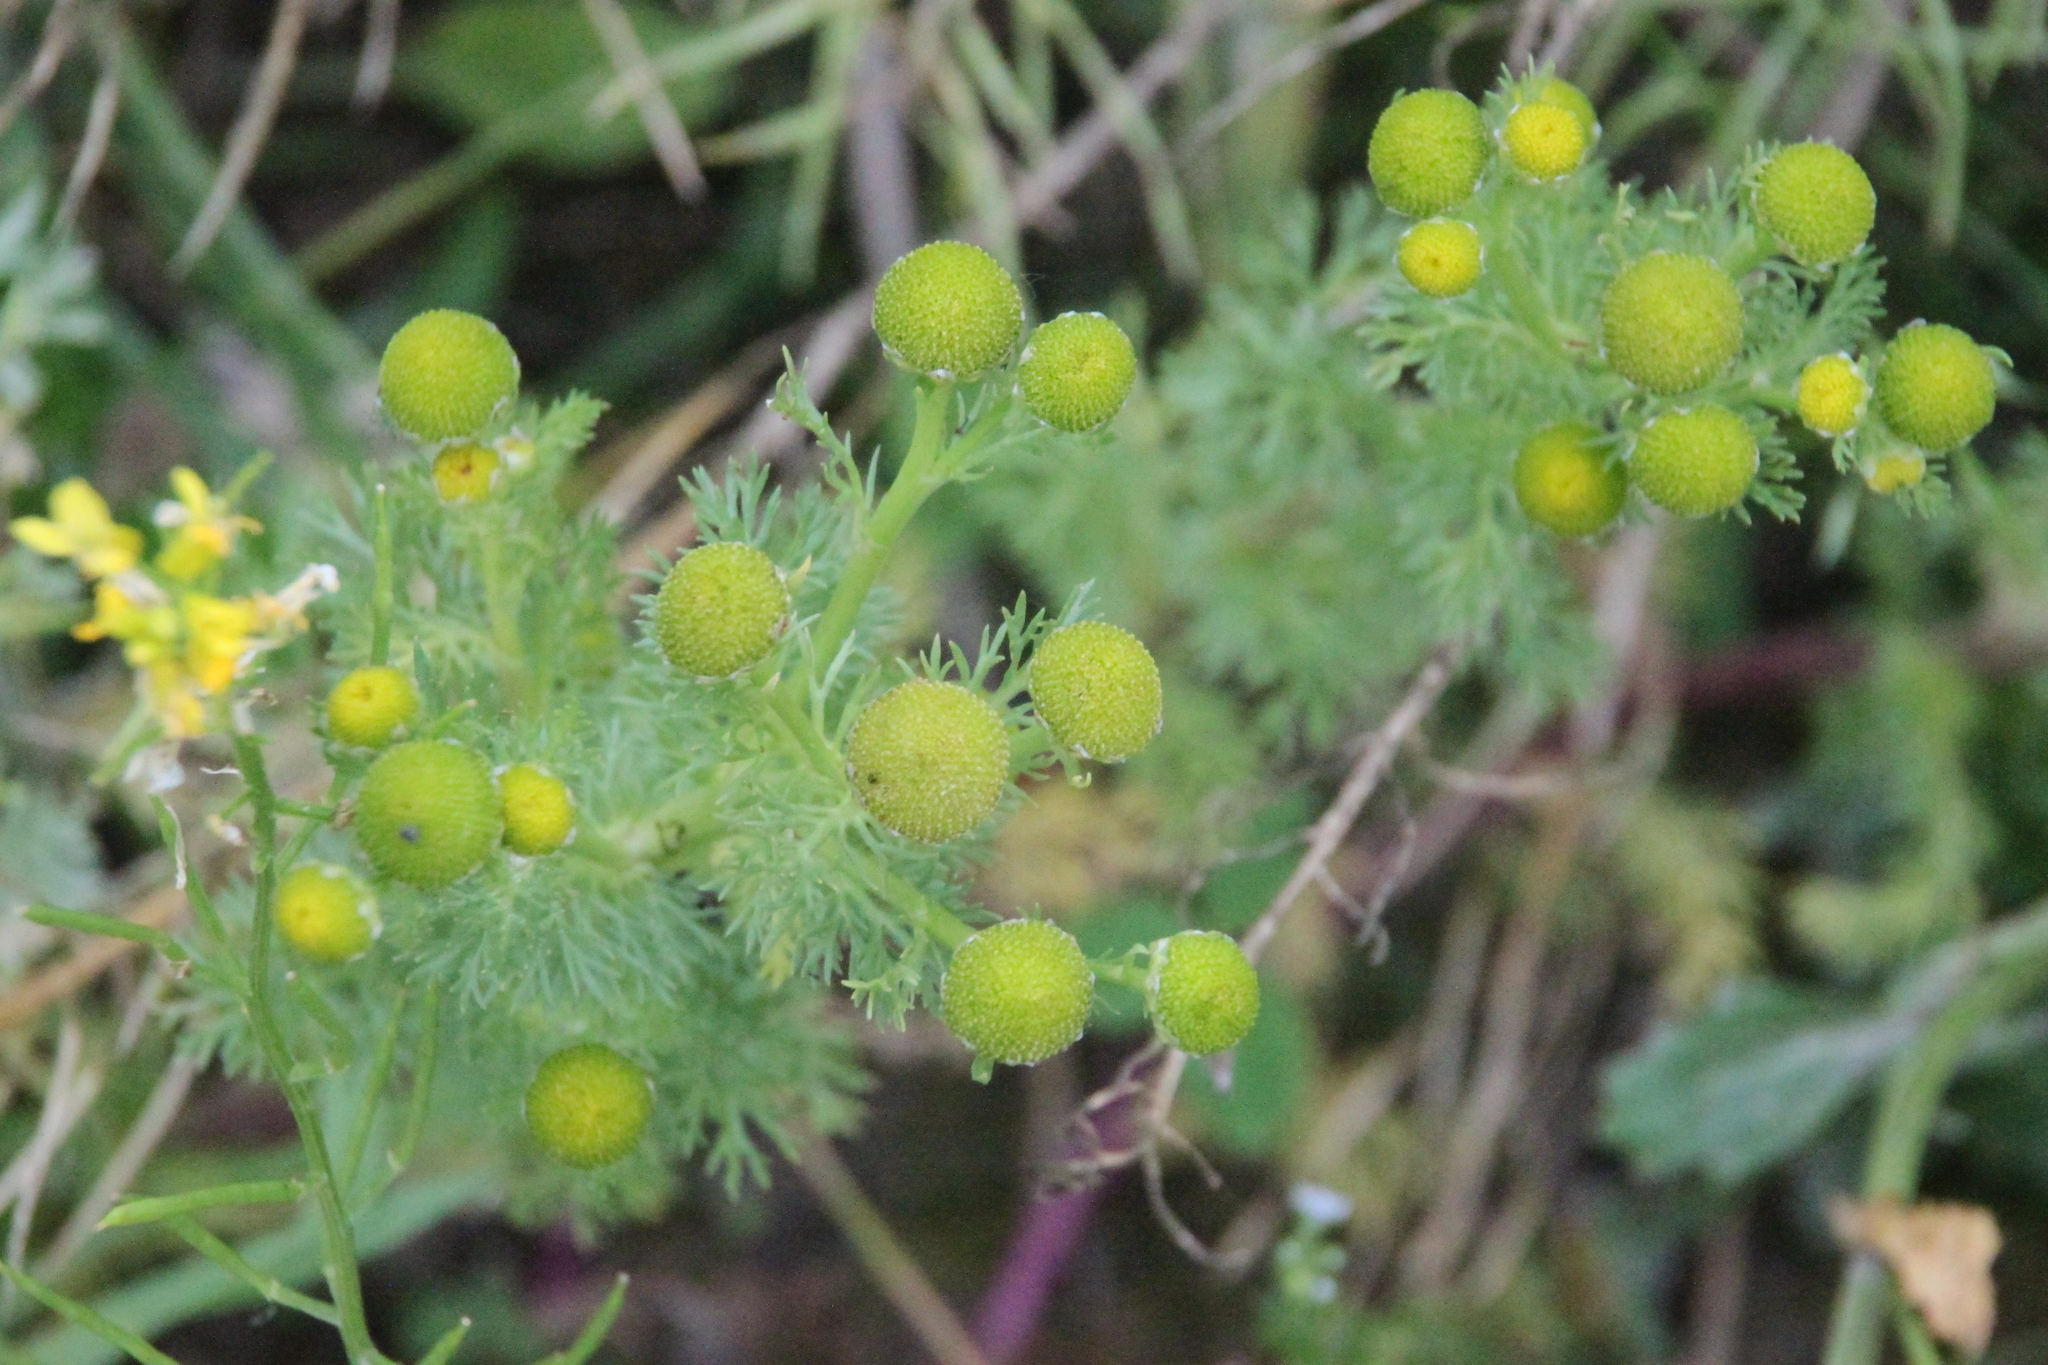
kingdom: Plantae
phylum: Tracheophyta
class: Magnoliopsida
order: Asterales
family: Asteraceae
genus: Matricaria
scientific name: Matricaria discoidea
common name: Disc mayweed
